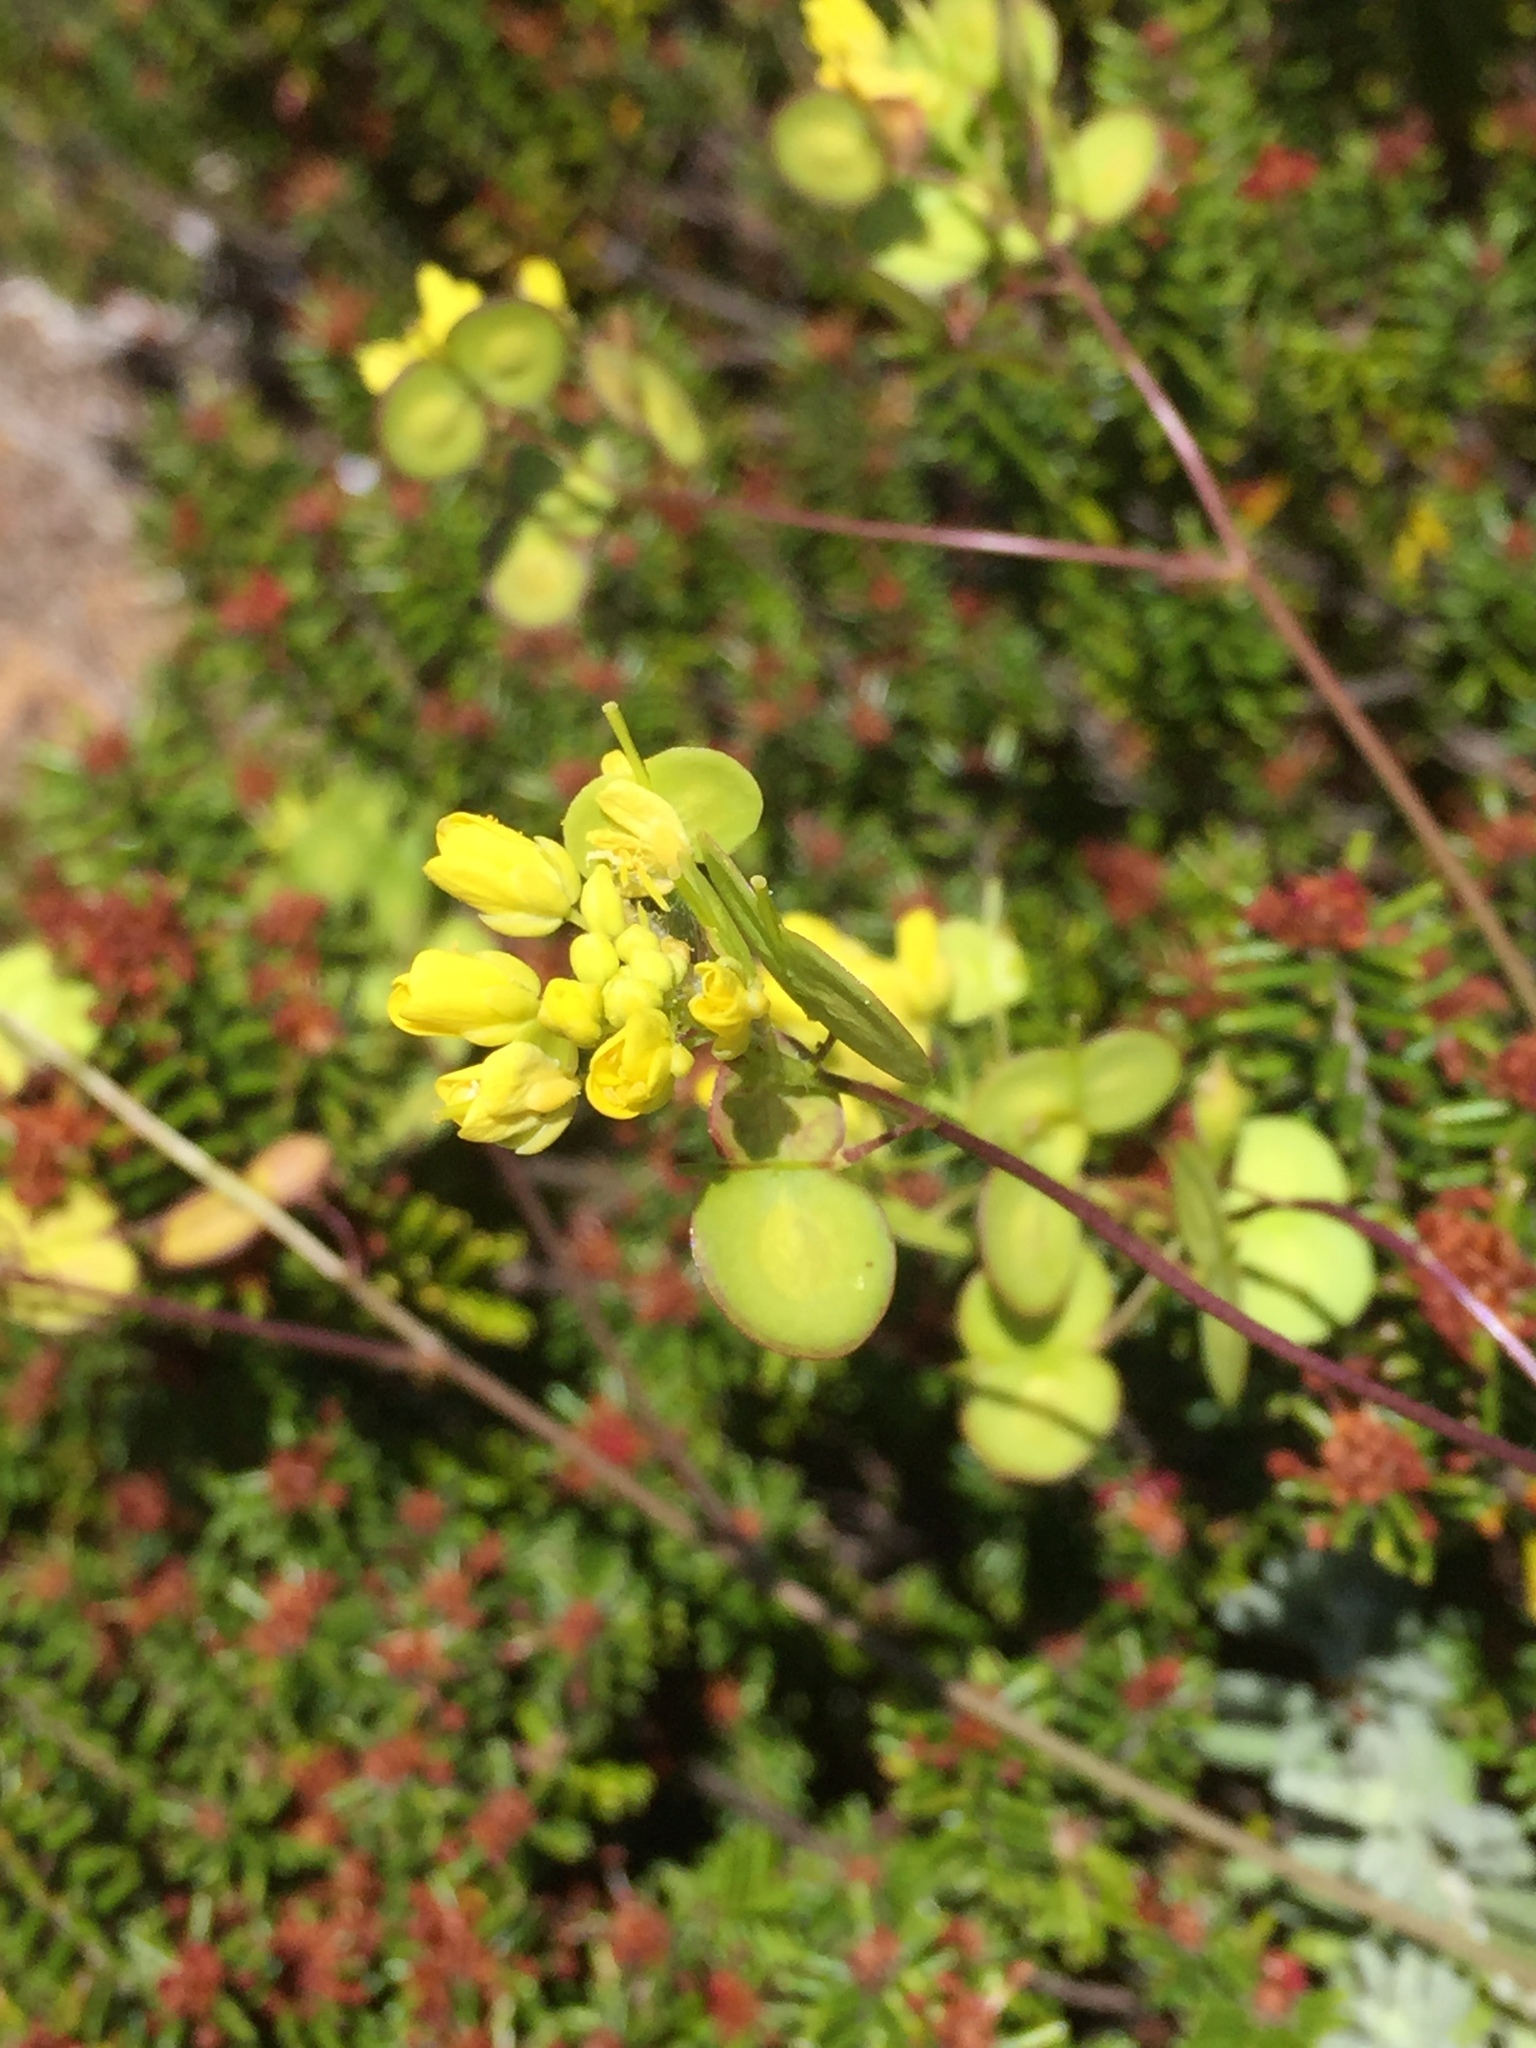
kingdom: Plantae
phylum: Tracheophyta
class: Magnoliopsida
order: Brassicales
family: Brassicaceae
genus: Biscutella
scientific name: Biscutella sempervirens
